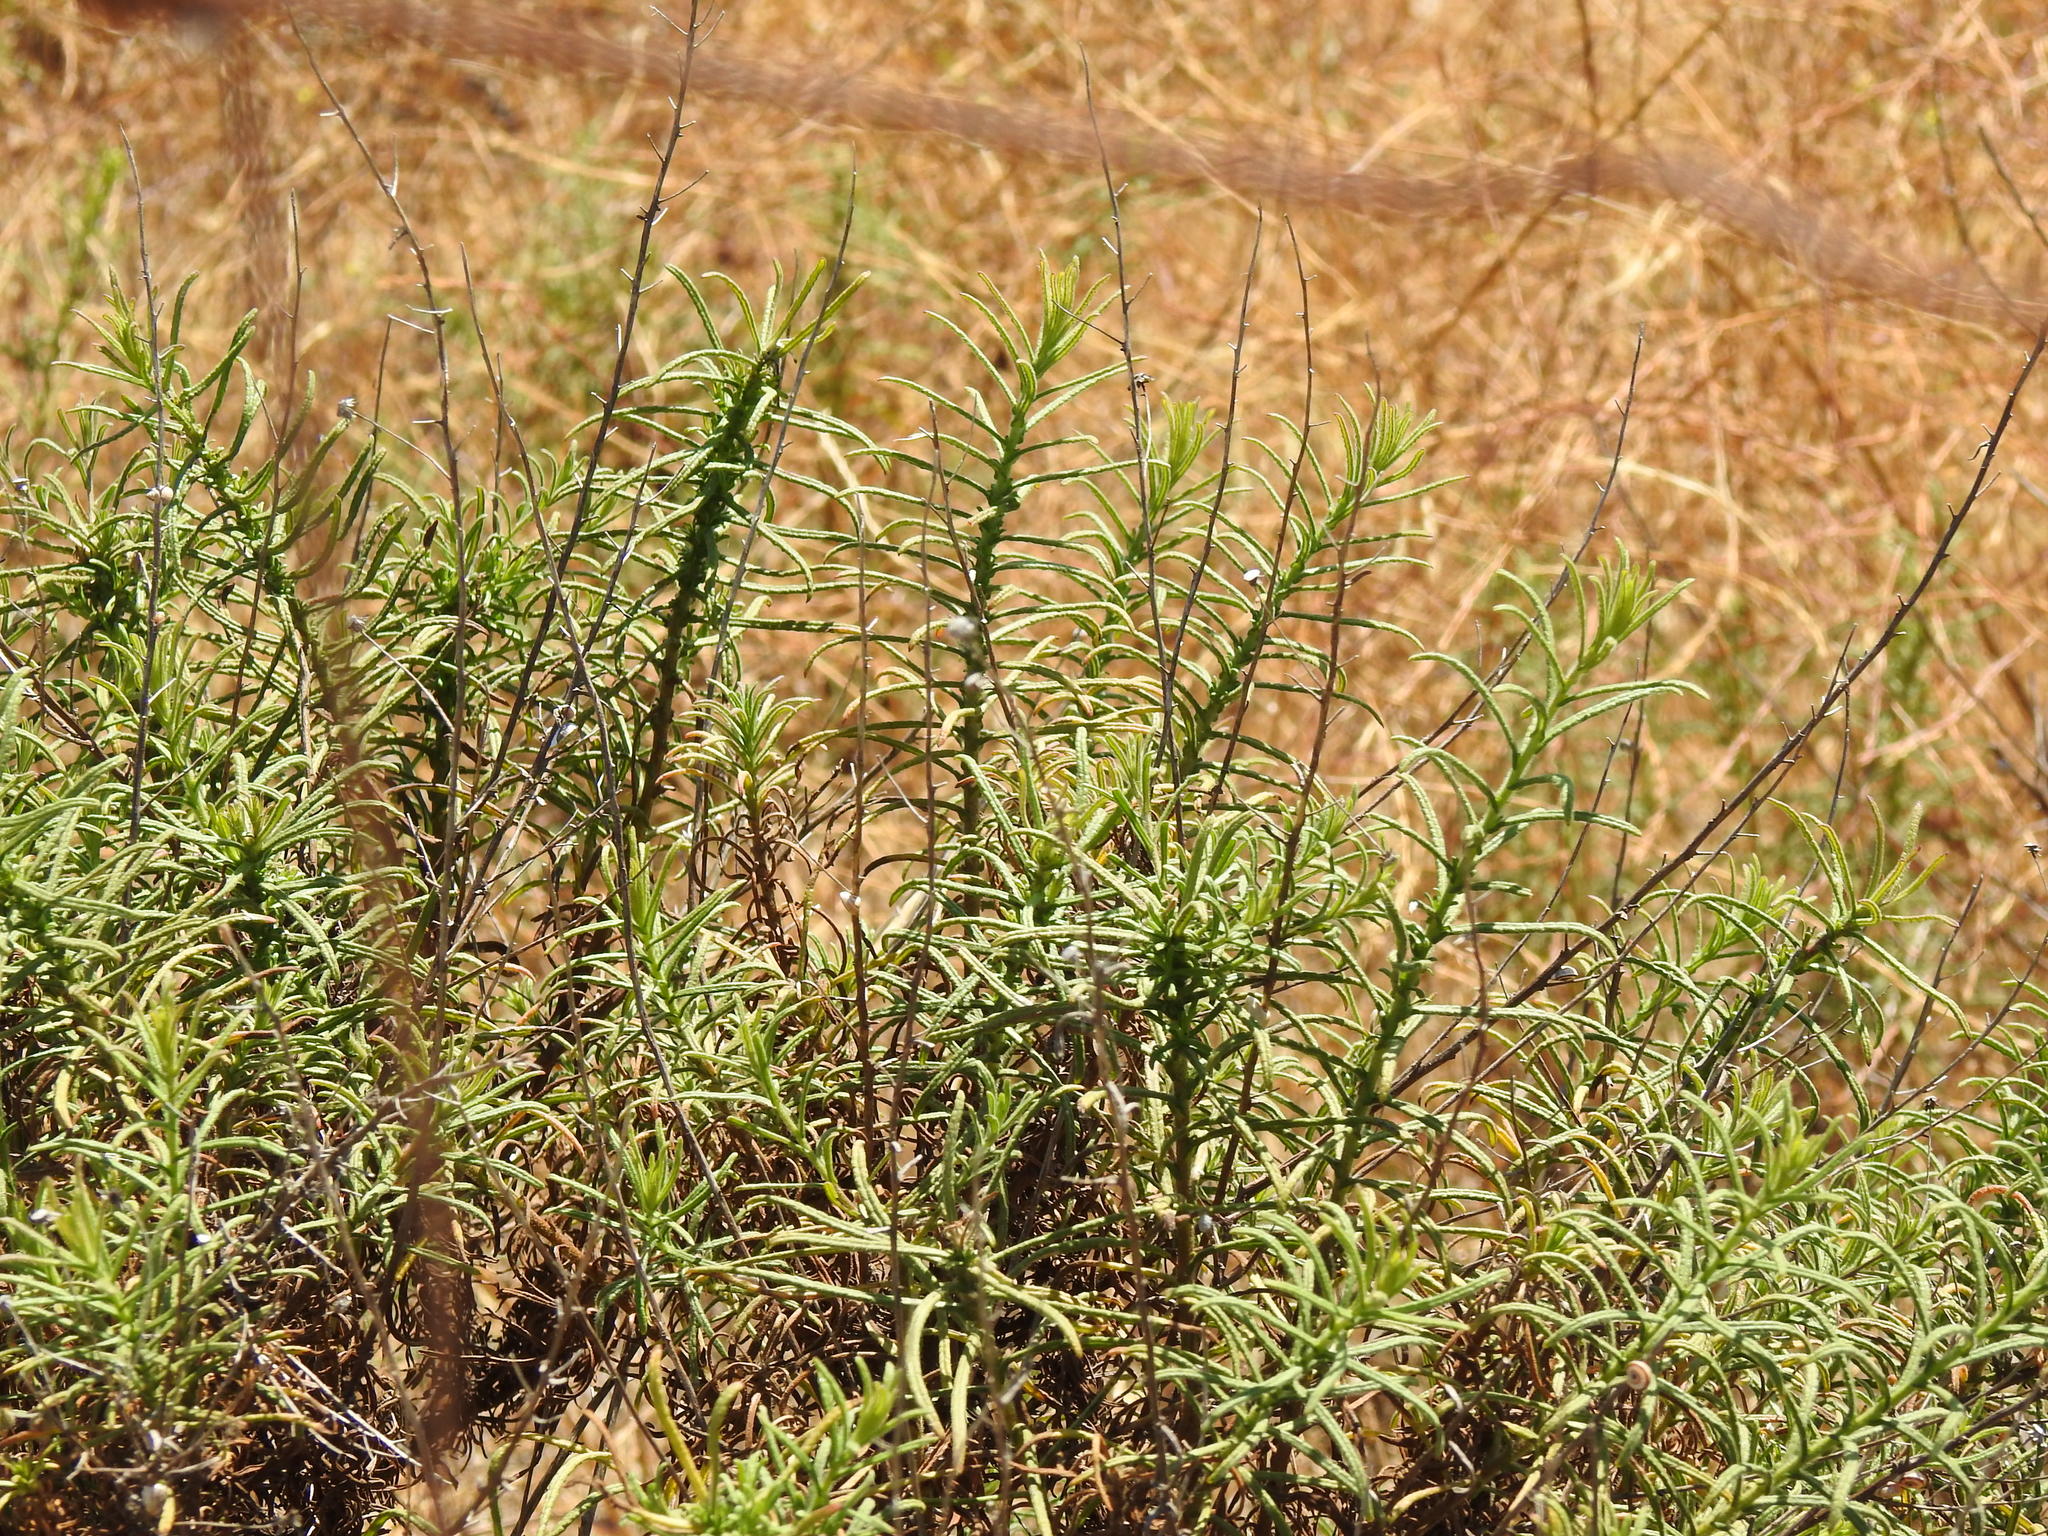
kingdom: Plantae
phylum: Tracheophyta
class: Magnoliopsida
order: Asterales
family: Asteraceae
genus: Dittrichia
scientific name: Dittrichia viscosa
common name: Woody fleabane
